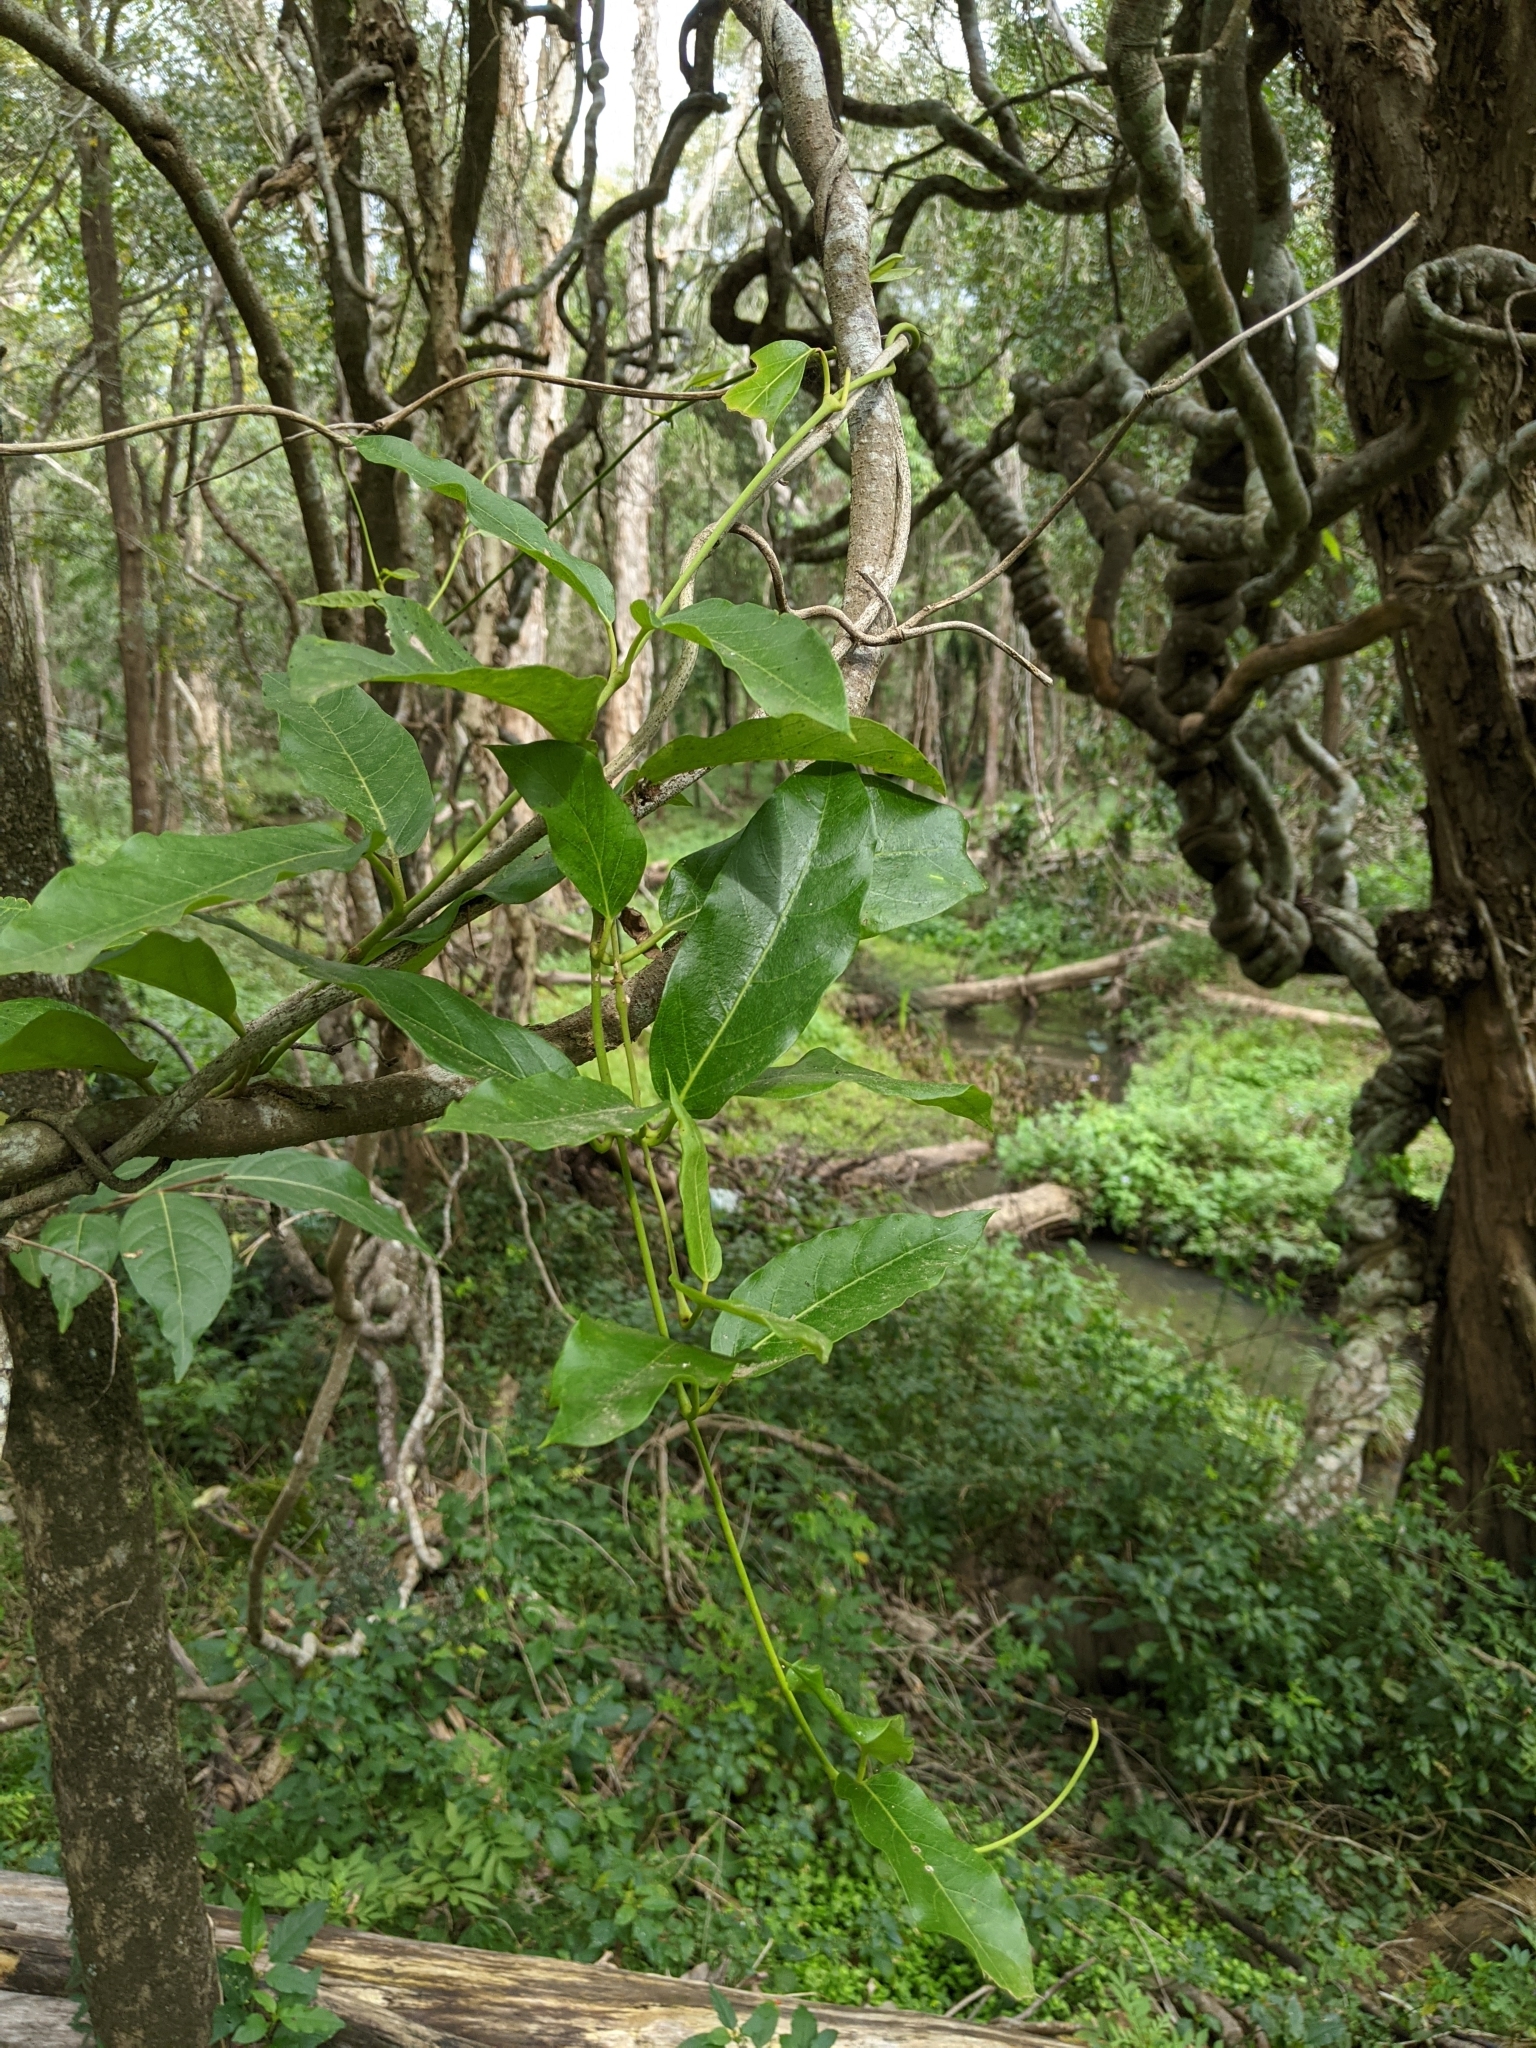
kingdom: Plantae
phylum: Tracheophyta
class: Magnoliopsida
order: Gentianales
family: Apocynaceae
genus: Parsonsia
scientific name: Parsonsia straminea
